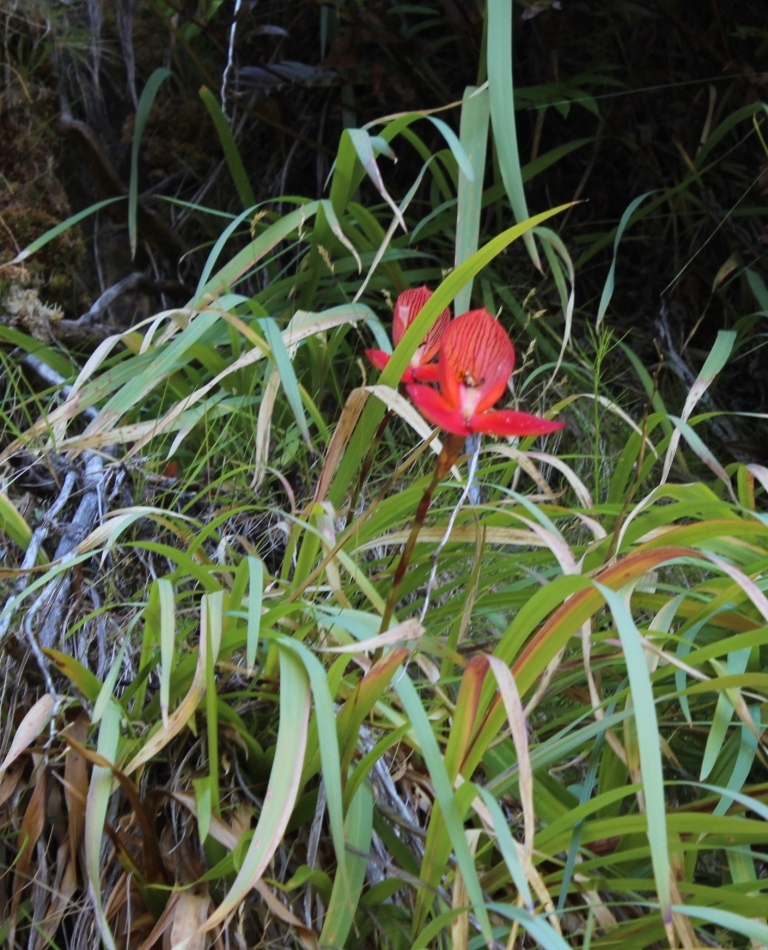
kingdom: Plantae
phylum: Tracheophyta
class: Liliopsida
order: Asparagales
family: Orchidaceae
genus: Disa
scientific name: Disa uniflora
